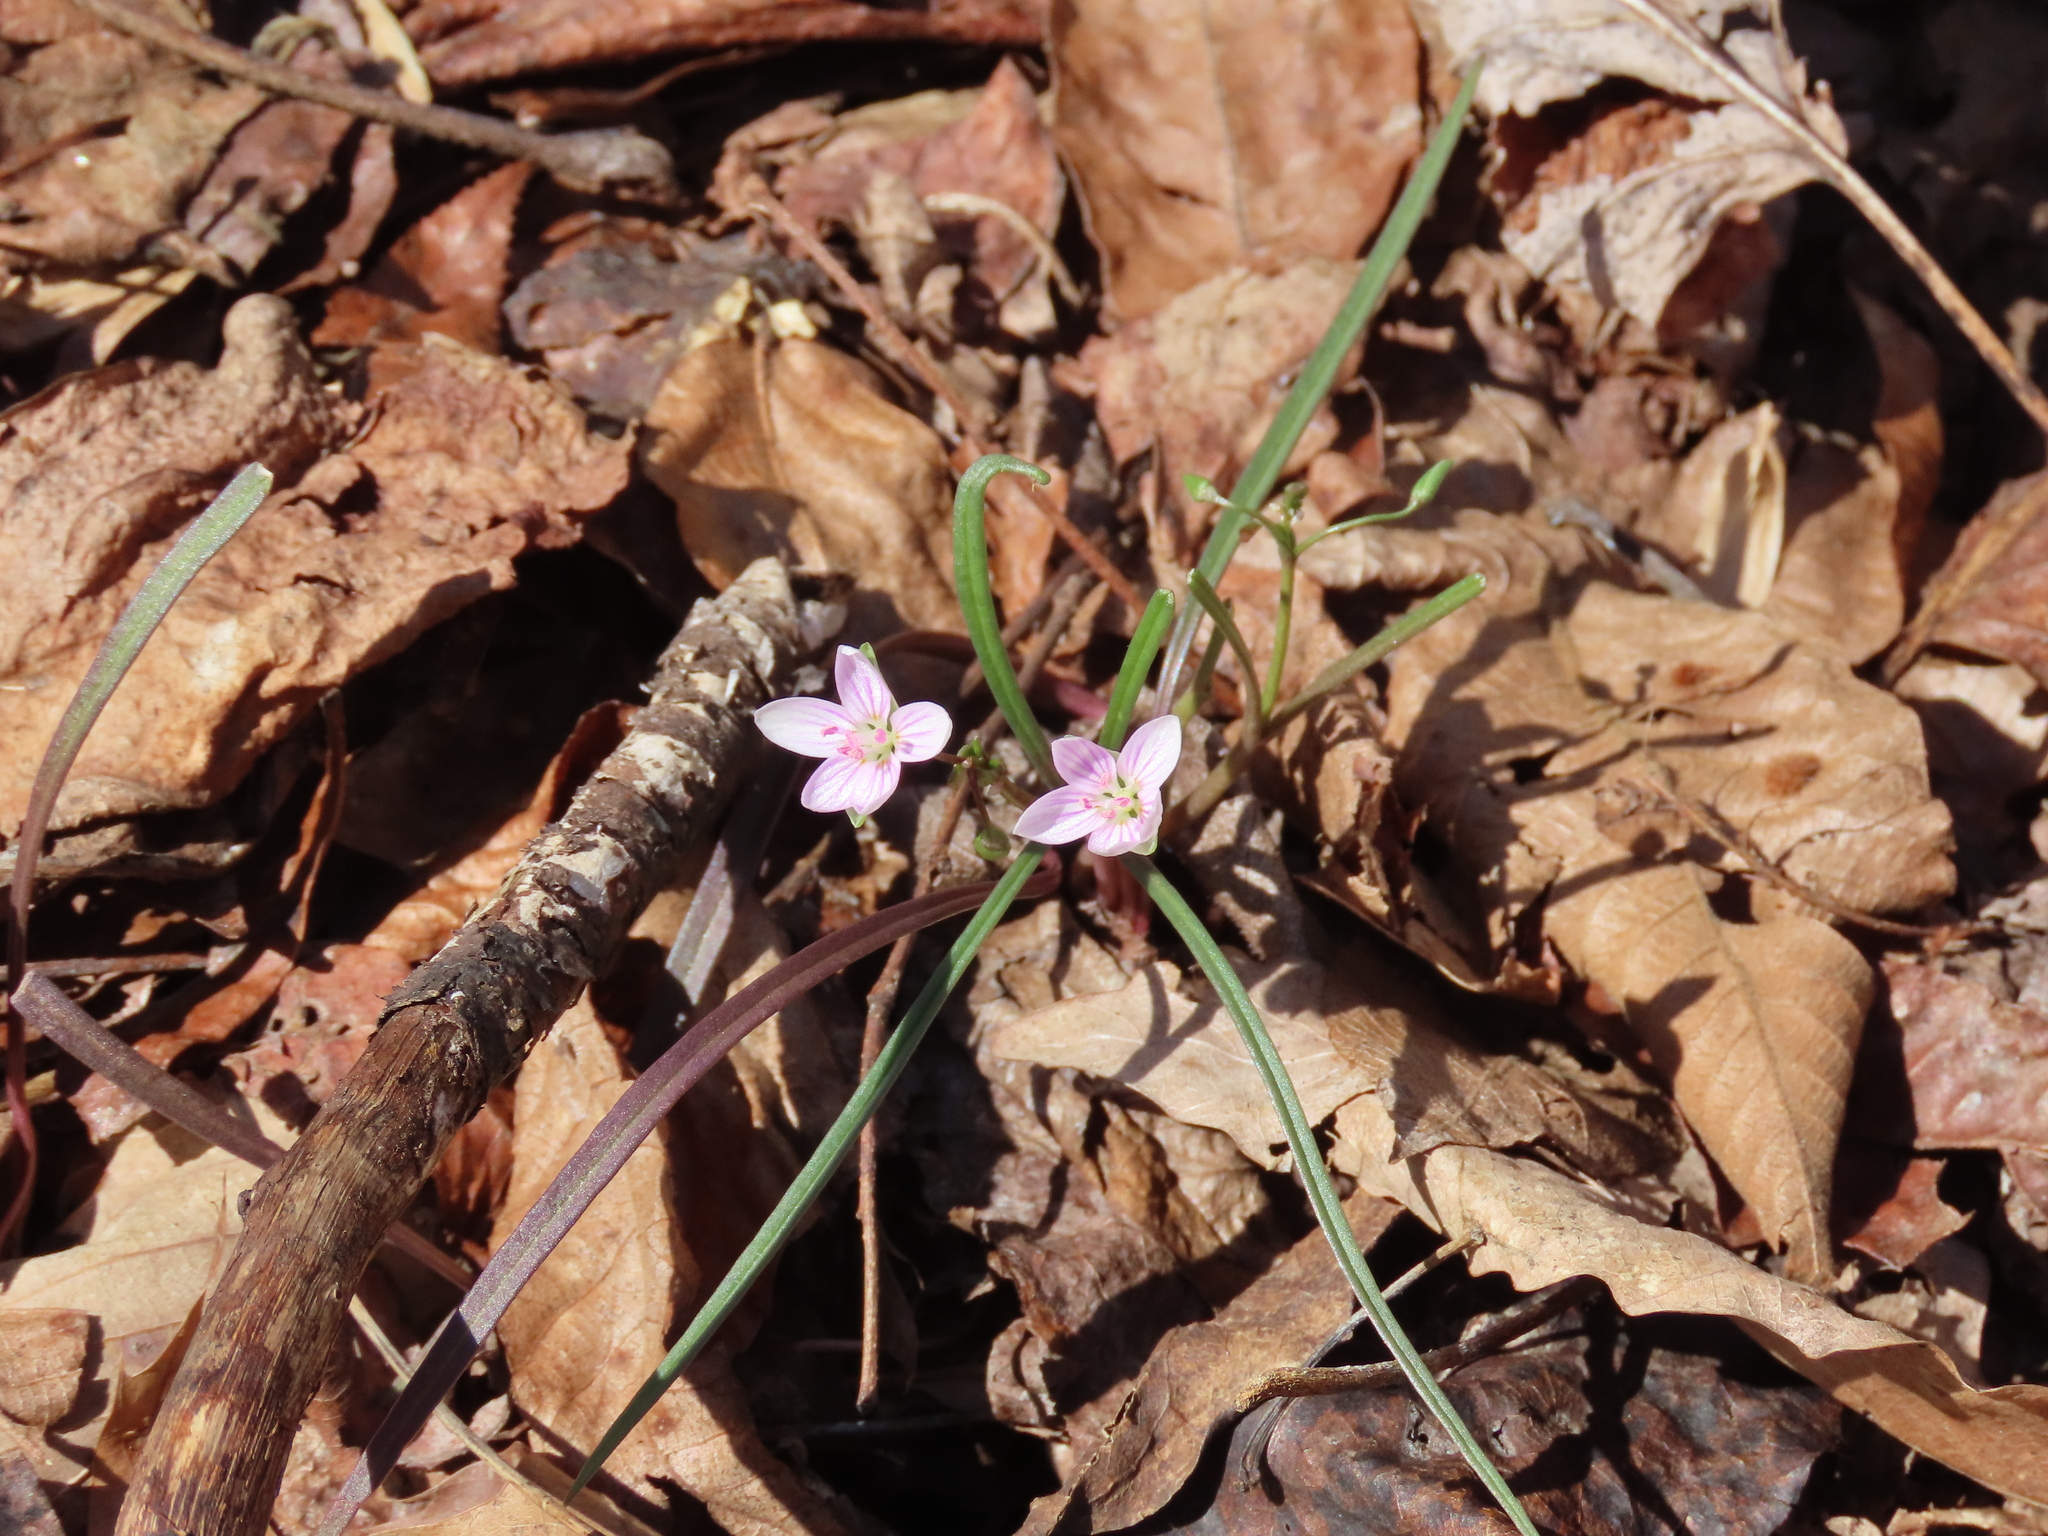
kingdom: Plantae
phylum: Tracheophyta
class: Magnoliopsida
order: Caryophyllales
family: Montiaceae
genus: Claytonia
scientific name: Claytonia virginica
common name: Virginia springbeauty
